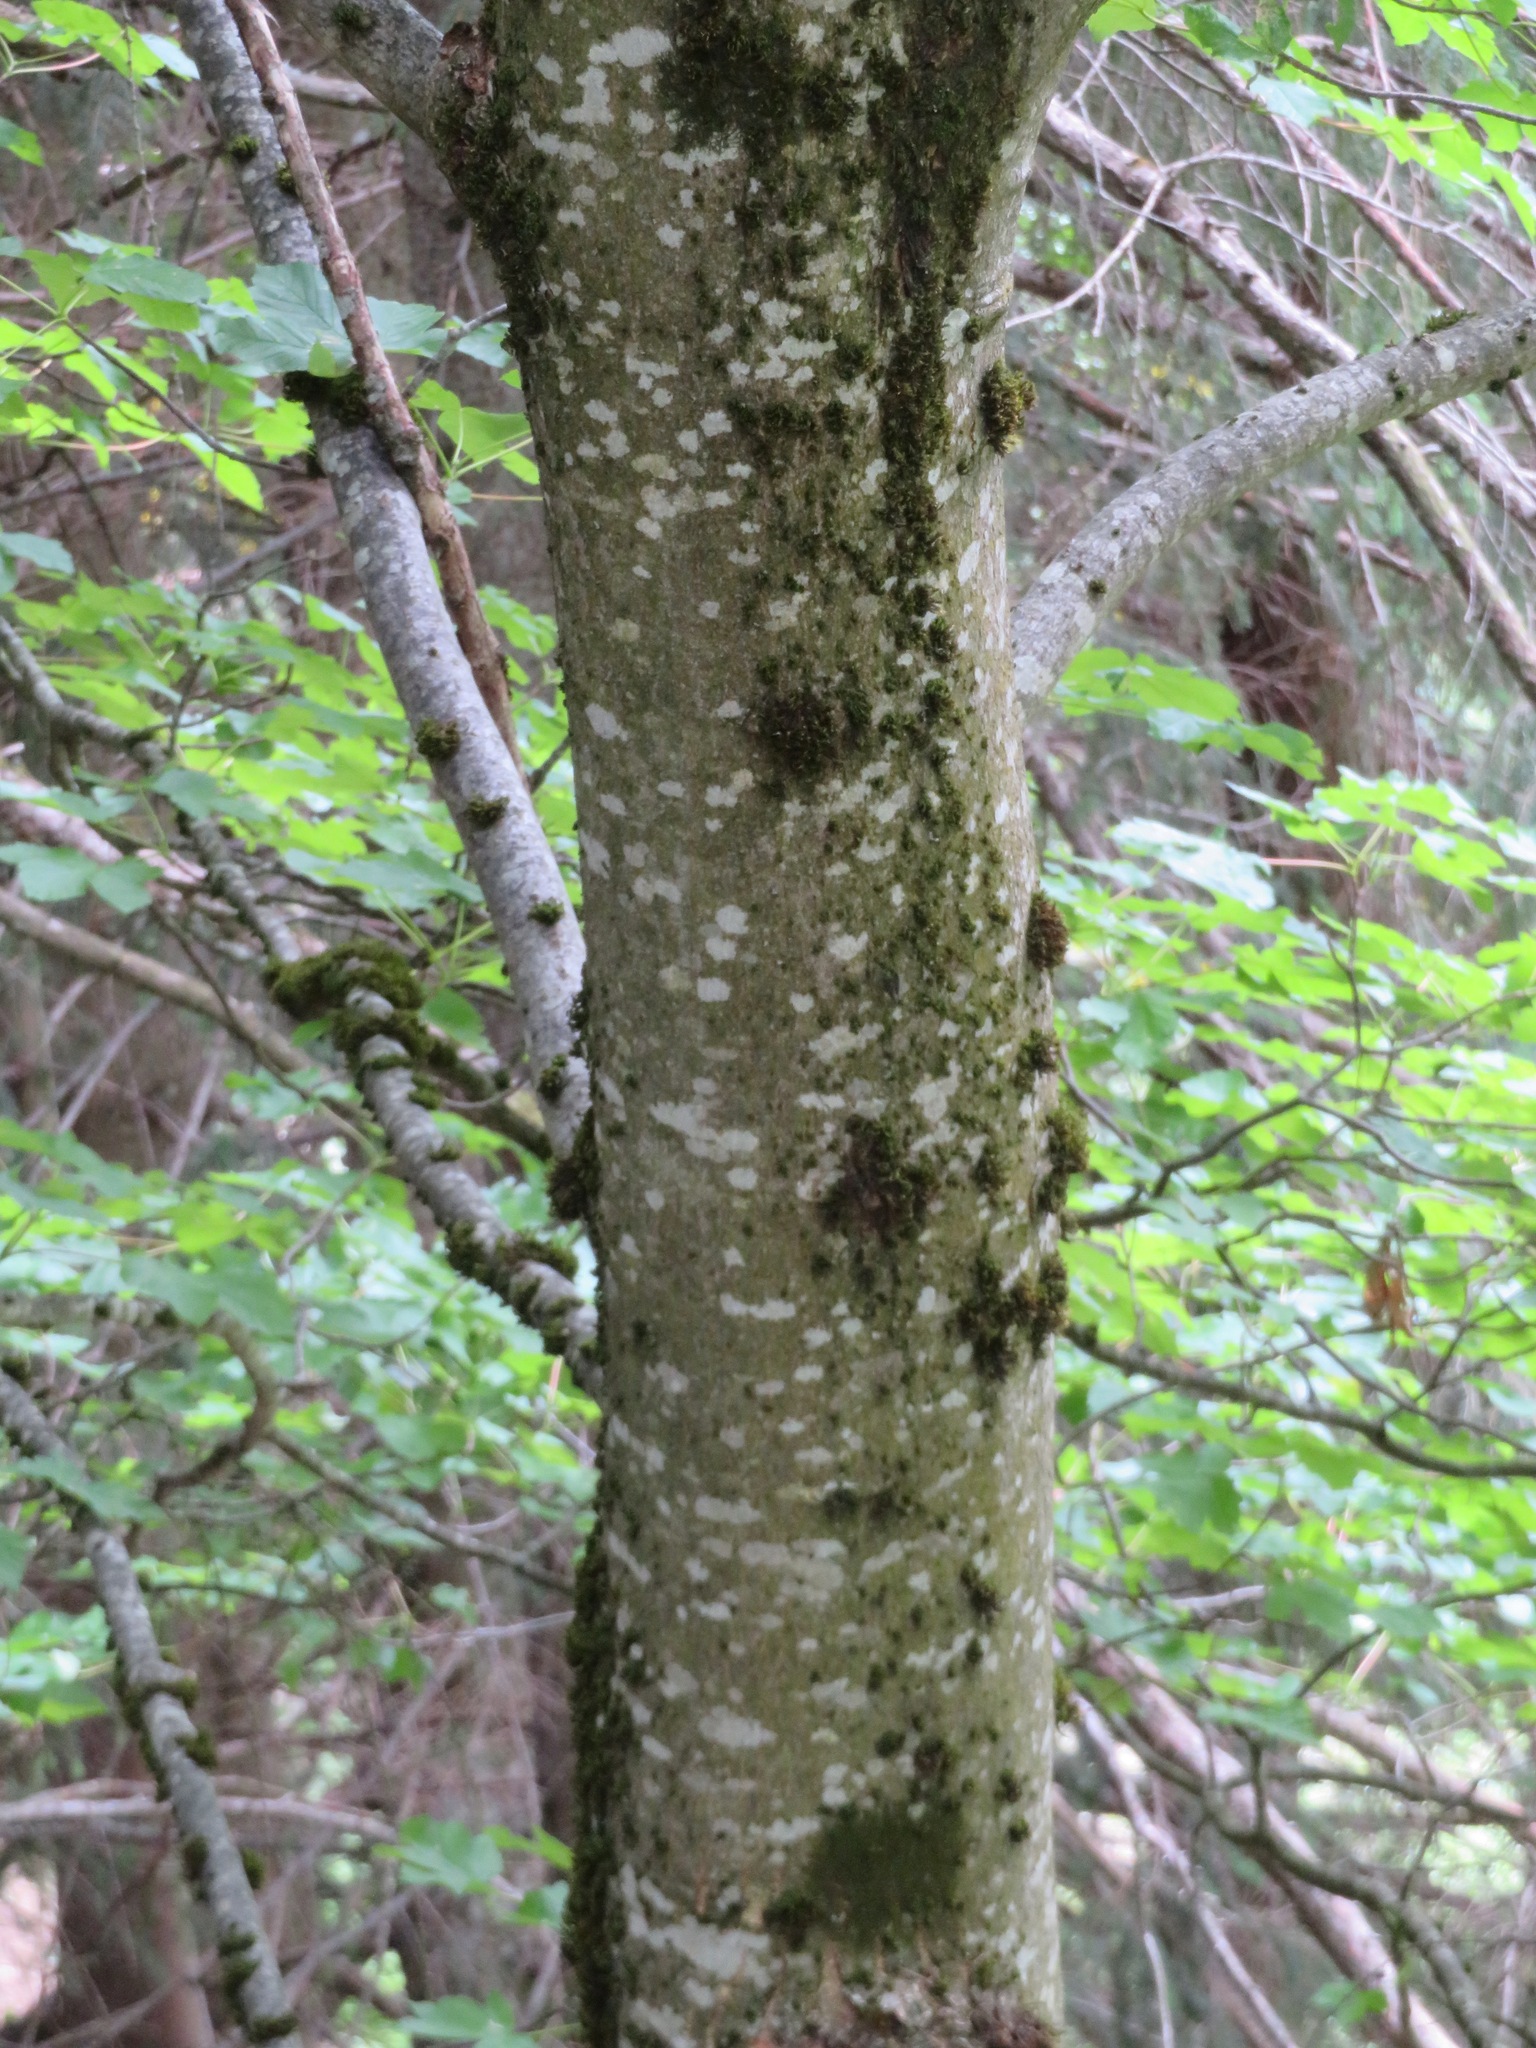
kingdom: Plantae
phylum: Tracheophyta
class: Magnoliopsida
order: Sapindales
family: Sapindaceae
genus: Acer
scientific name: Acer pseudoplatanus
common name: Sycamore
